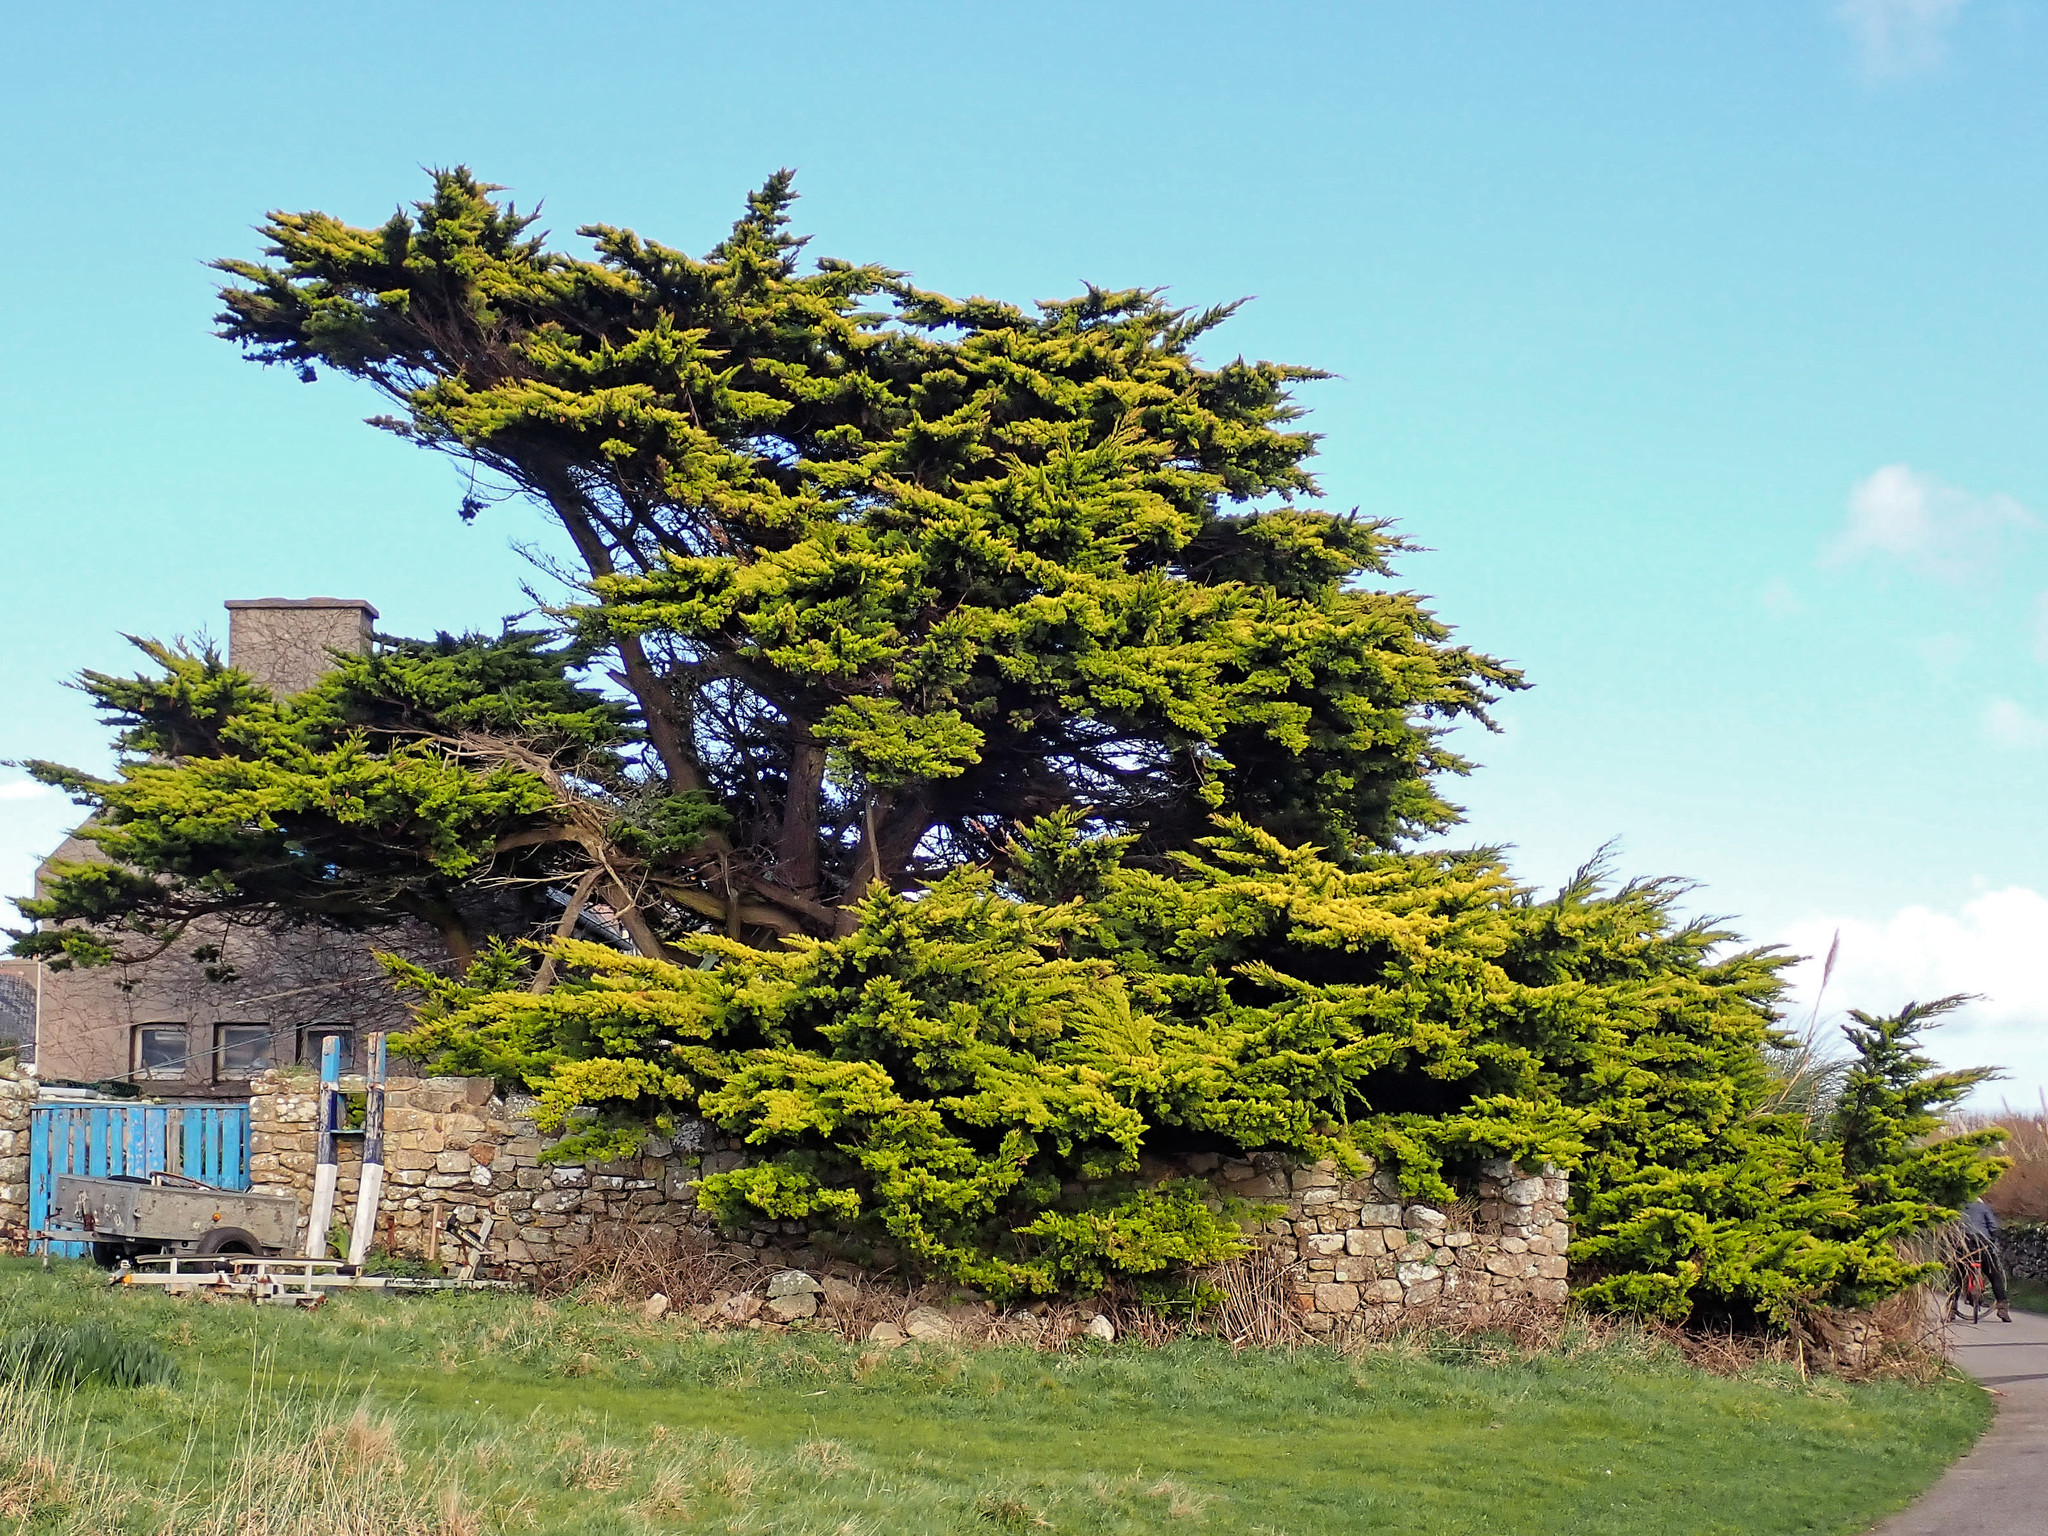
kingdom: Plantae
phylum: Tracheophyta
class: Pinopsida
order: Pinales
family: Cupressaceae
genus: Cupressus
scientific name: Cupressus macrocarpa
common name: Monterey cypress
